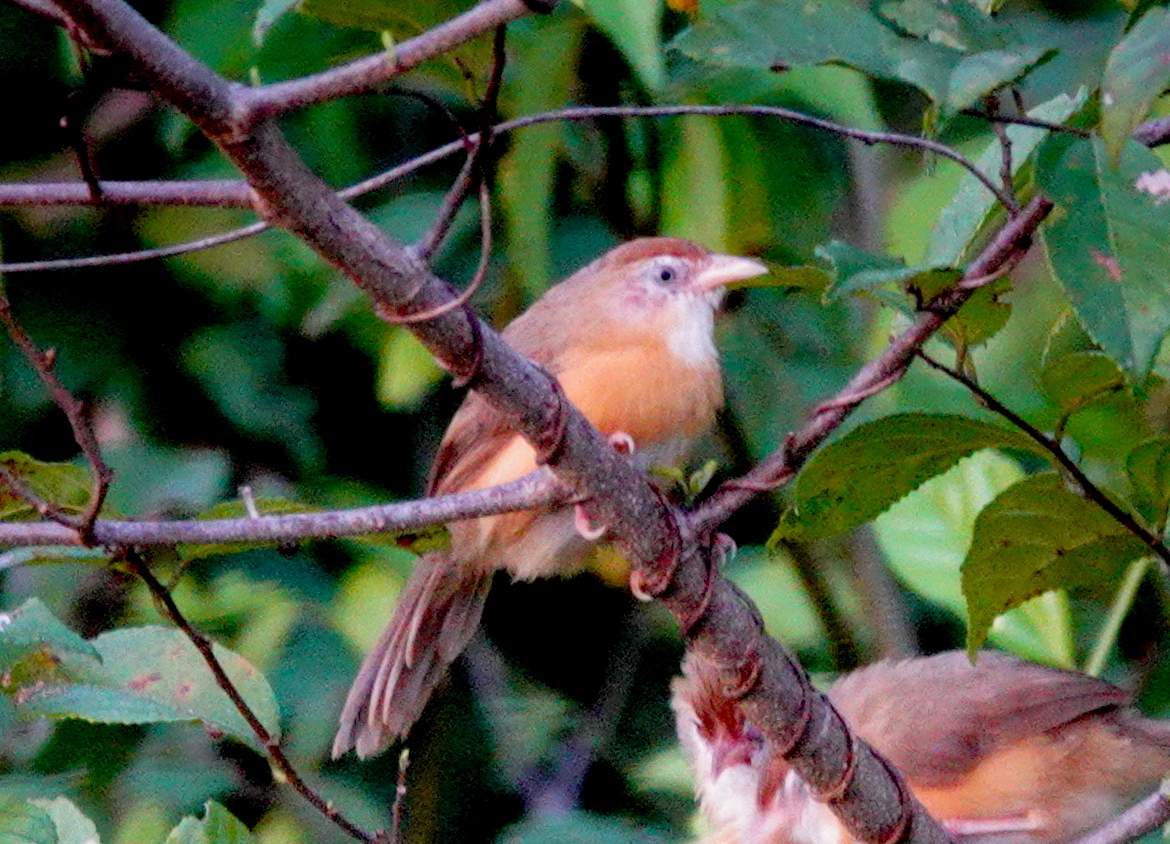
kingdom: Animalia
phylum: Chordata
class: Aves
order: Passeriformes
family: Timaliidae
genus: Dumetia
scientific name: Dumetia hyperythra
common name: Tawny-bellied babbler
